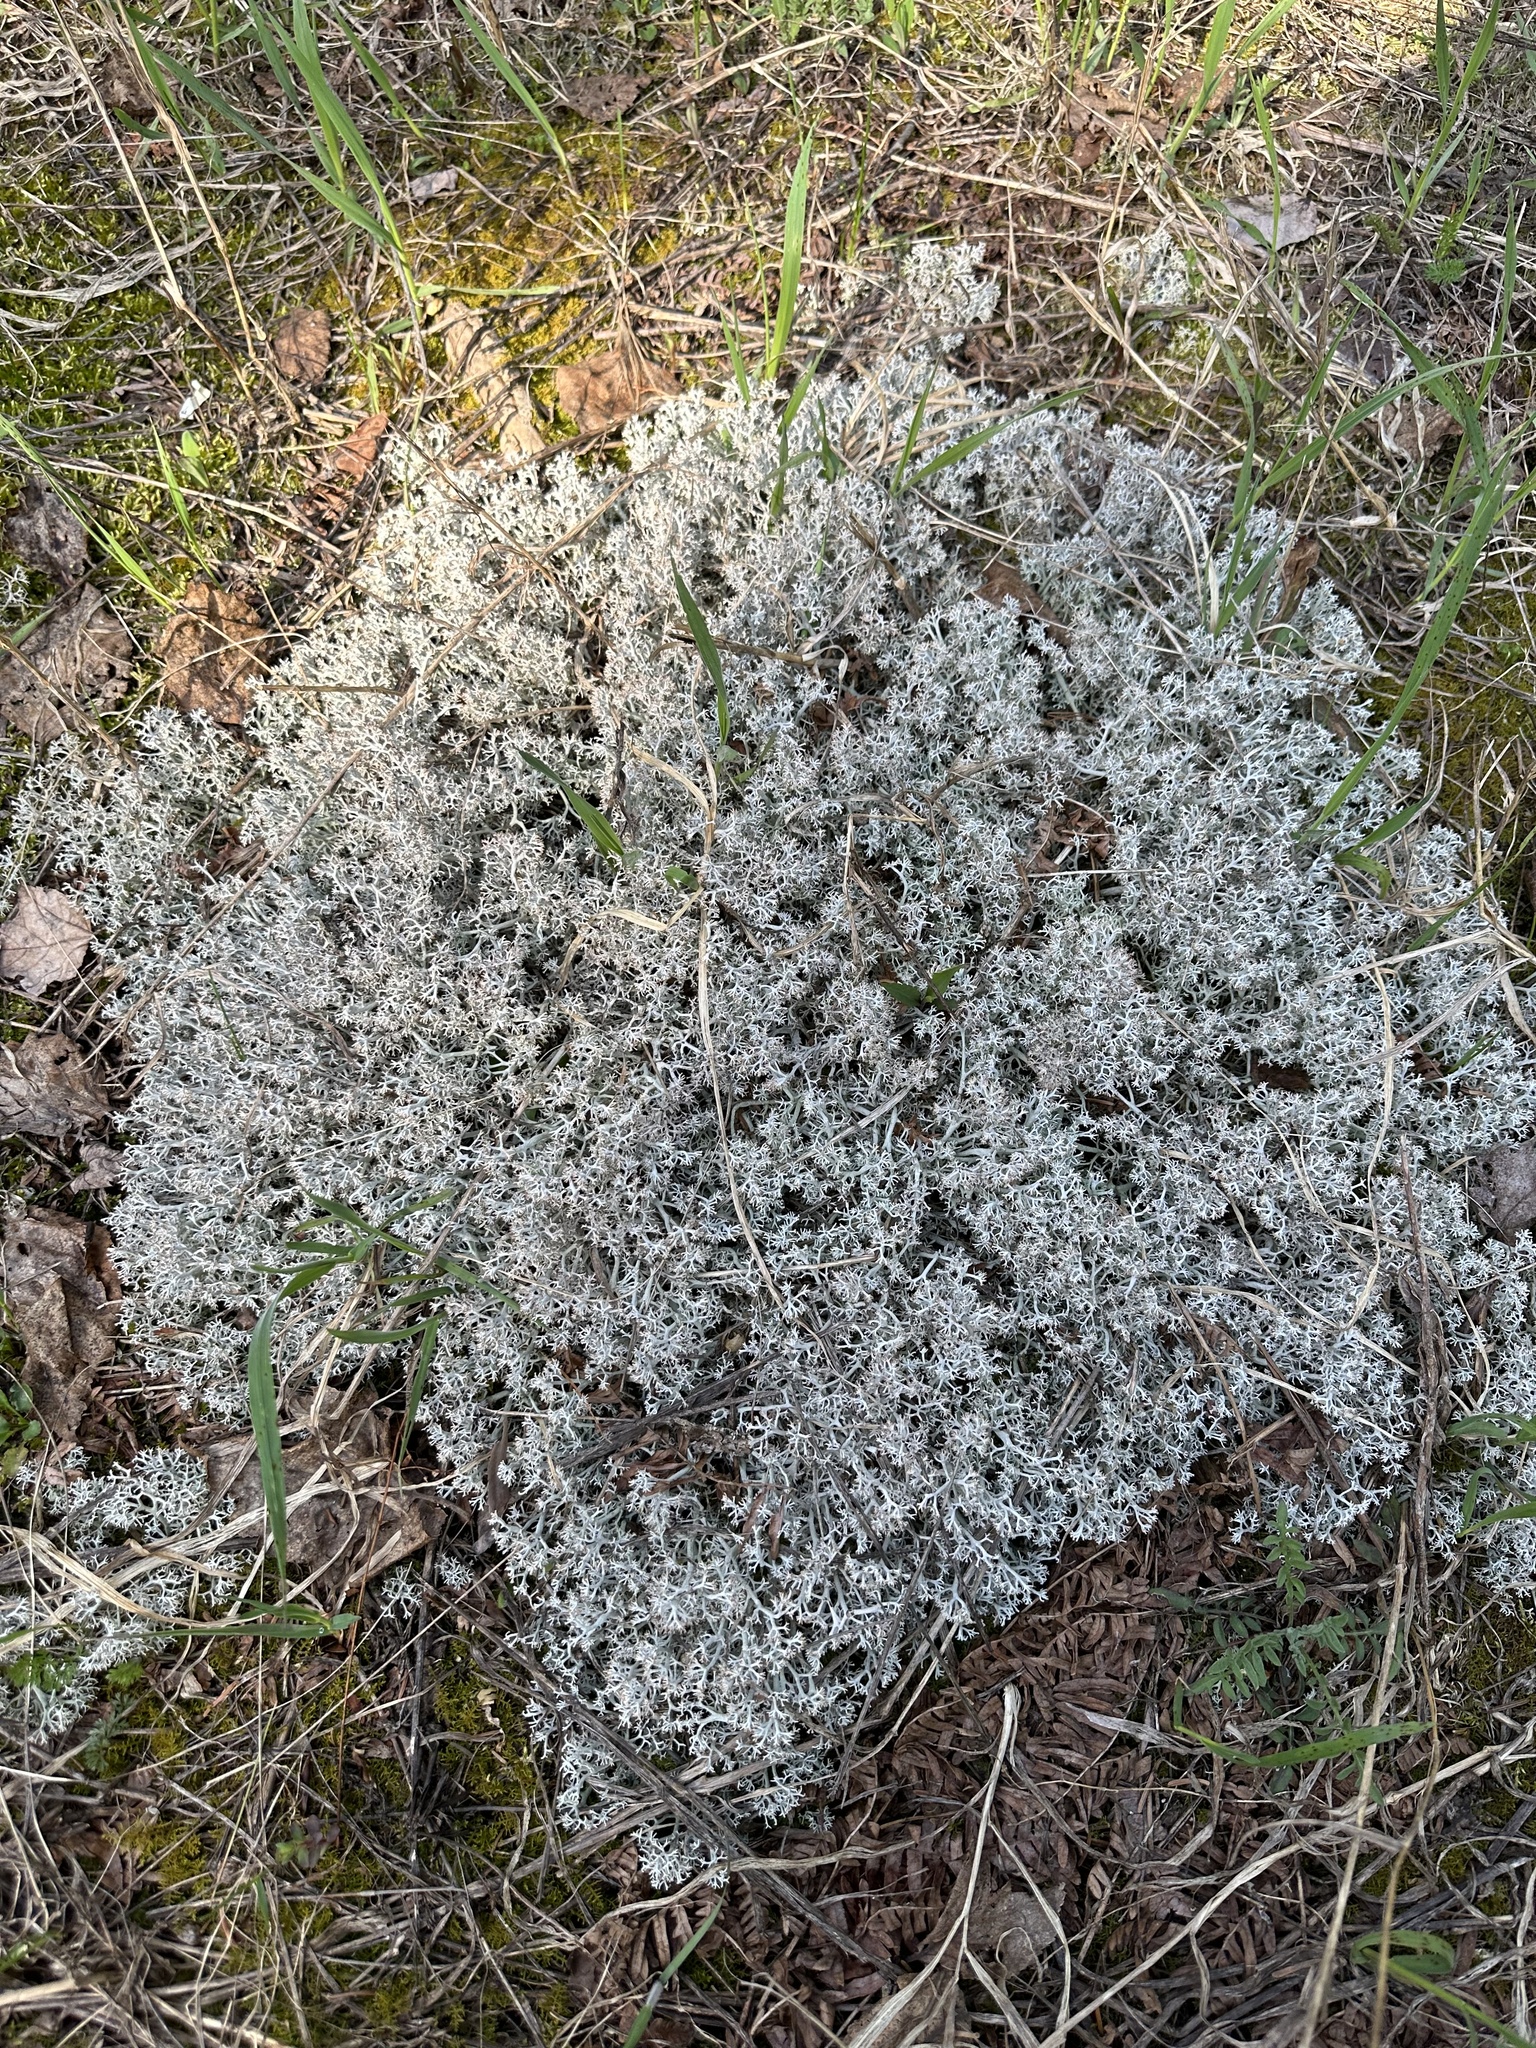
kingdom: Fungi
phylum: Ascomycota
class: Lecanoromycetes
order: Lecanorales
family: Cladoniaceae
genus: Cladonia
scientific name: Cladonia rangiferina
